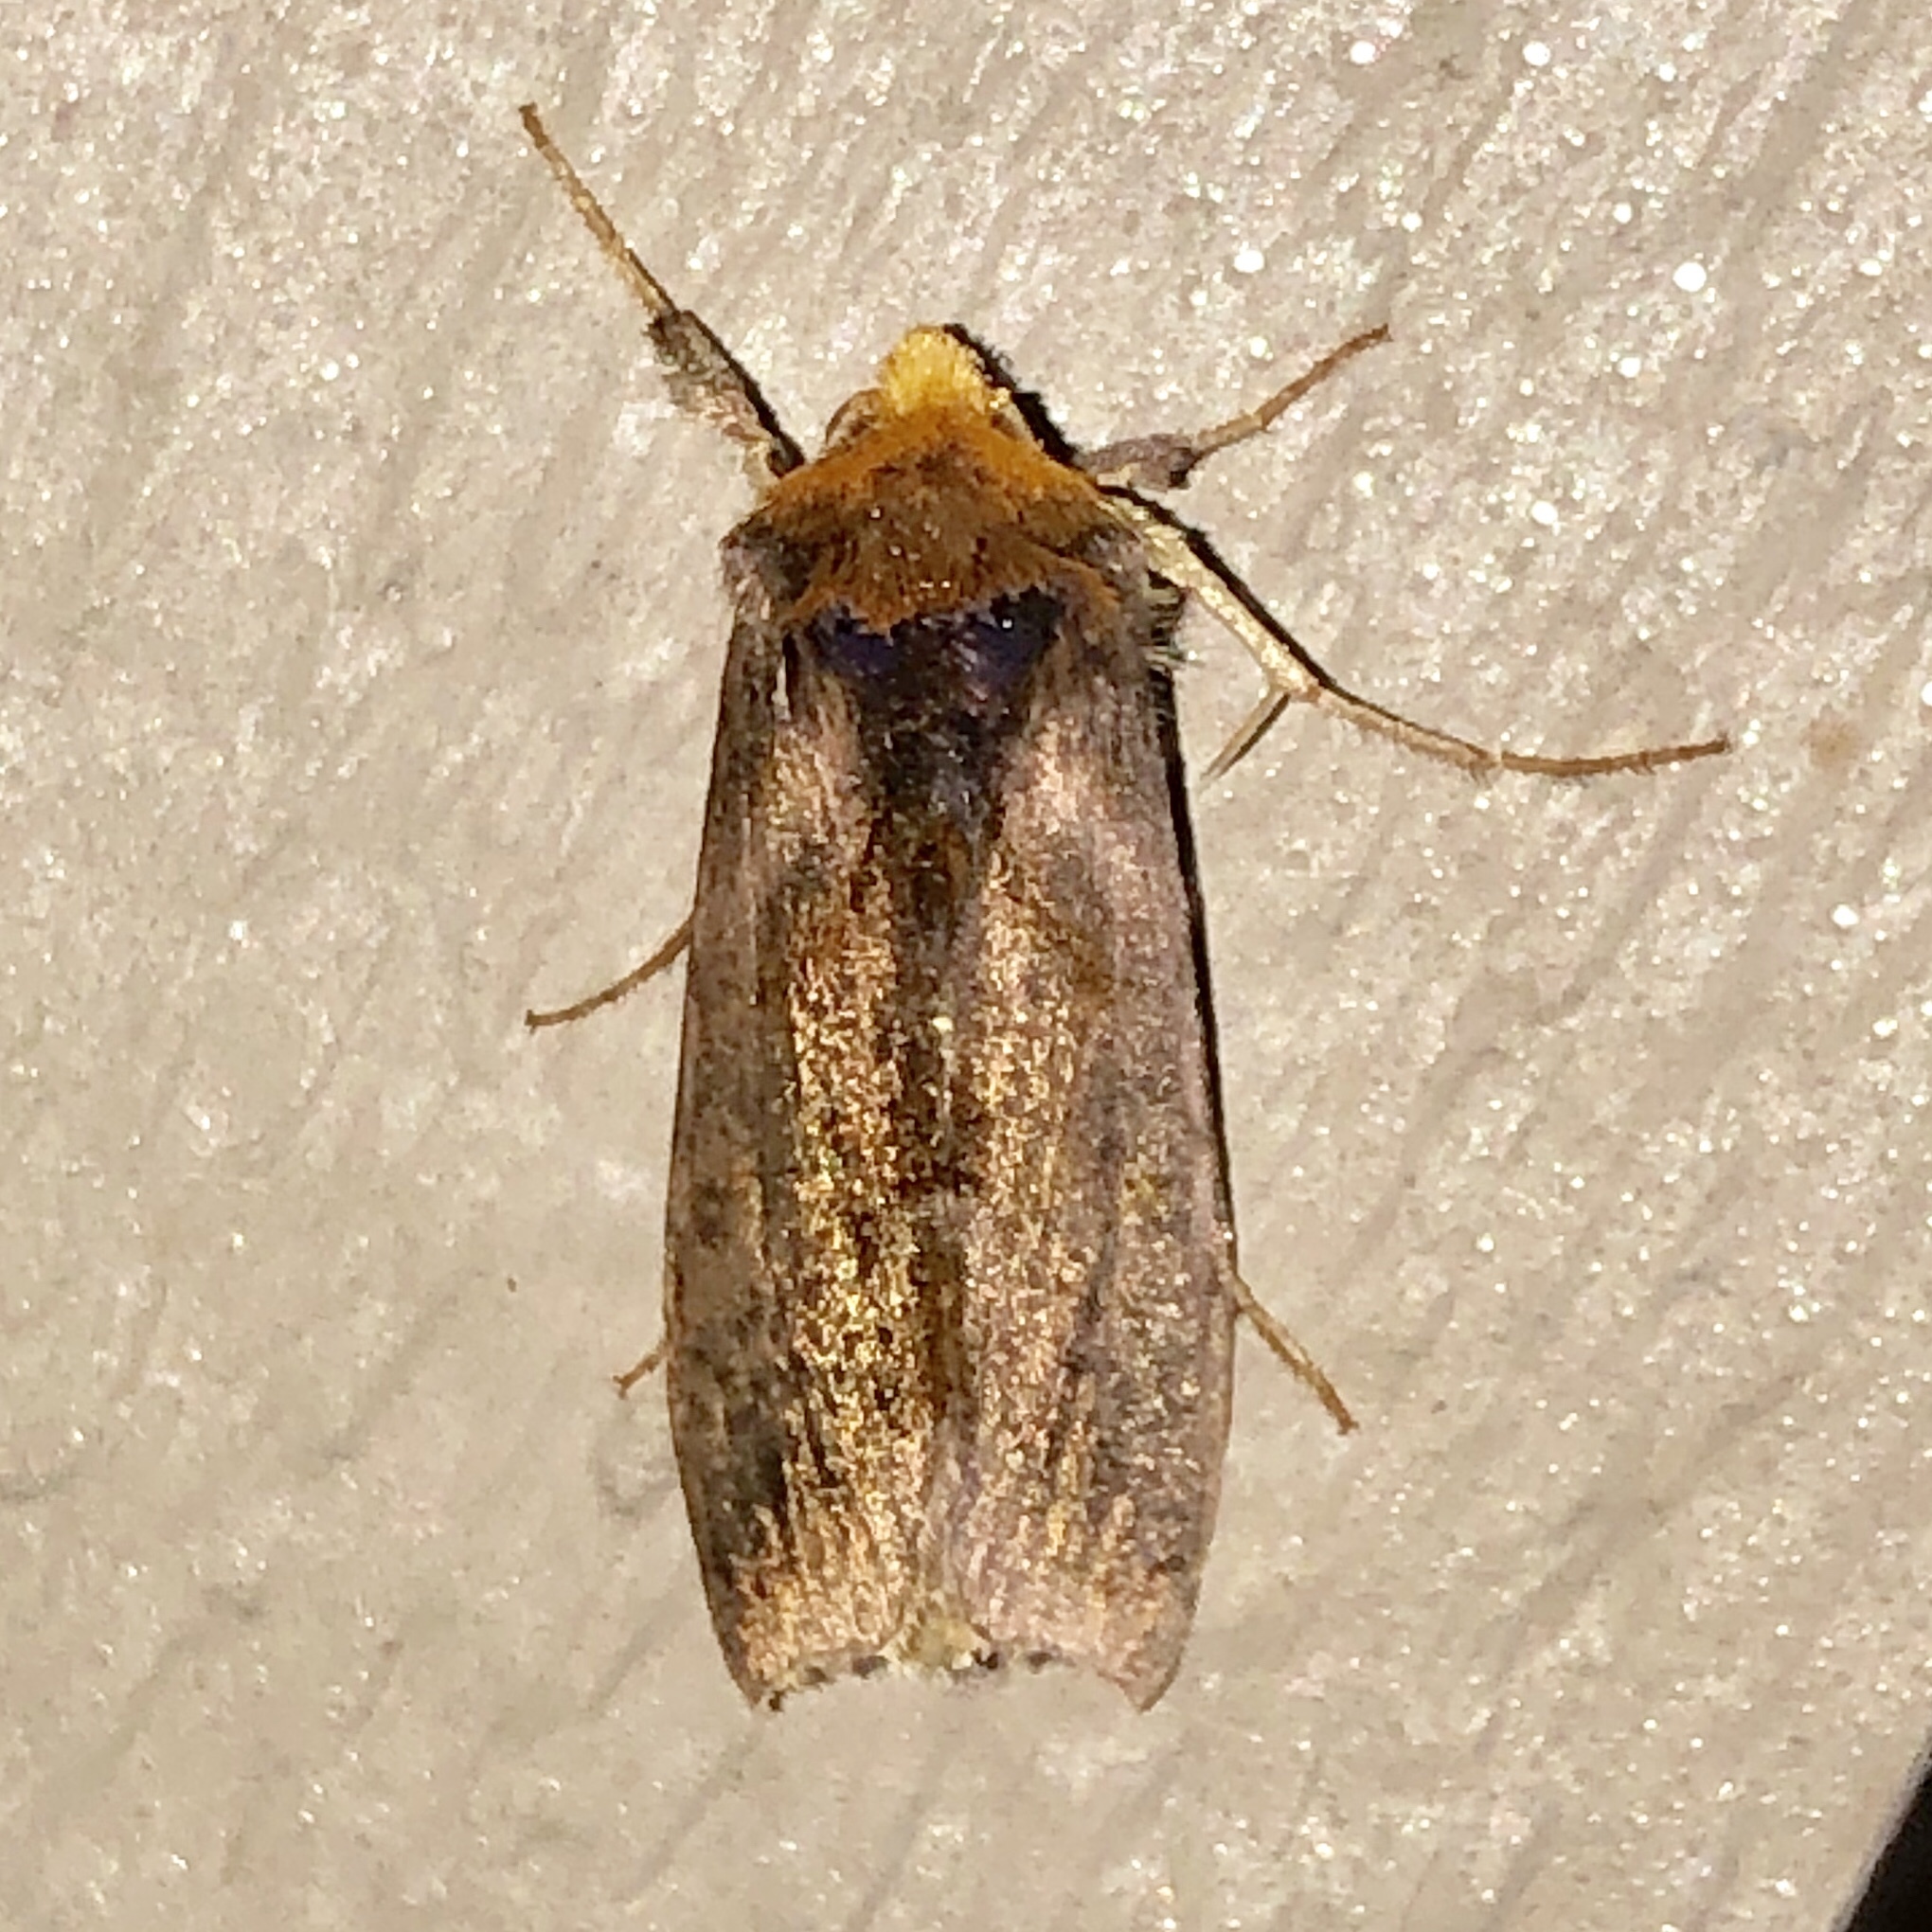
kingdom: Animalia
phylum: Arthropoda
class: Insecta
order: Lepidoptera
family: Noctuidae
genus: Allagrapha
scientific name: Allagrapha aerea
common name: Unspotted looper moth
